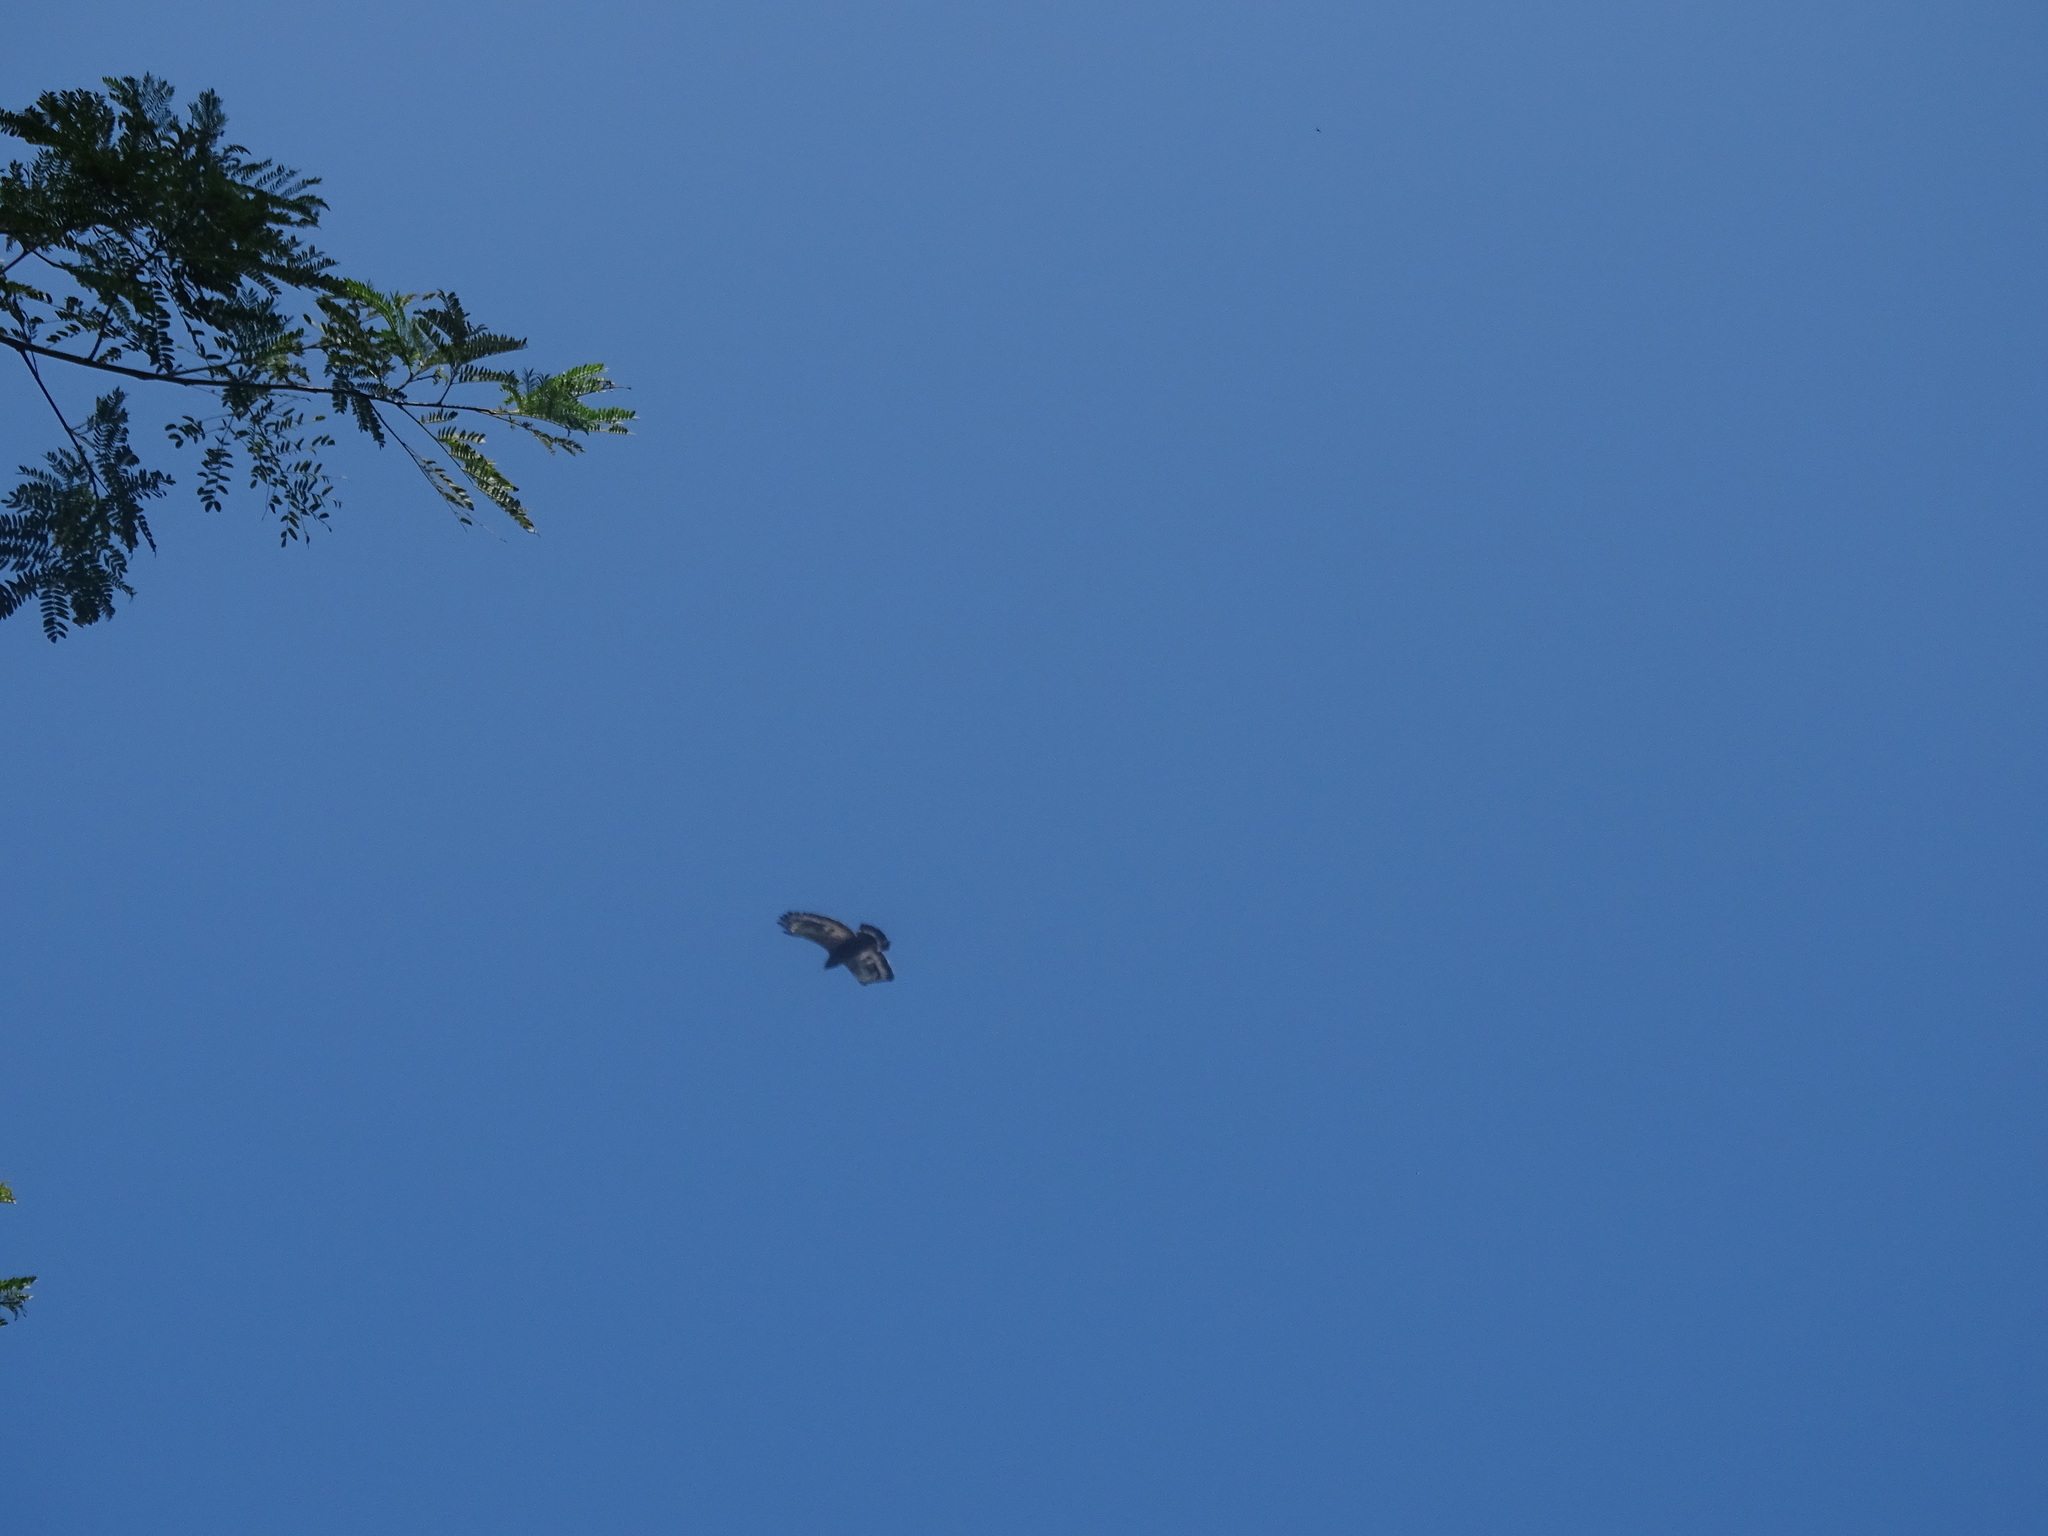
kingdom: Animalia
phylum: Chordata
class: Aves
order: Accipitriformes
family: Accipitridae
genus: Spilornis
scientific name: Spilornis cheela
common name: Crested serpent eagle
